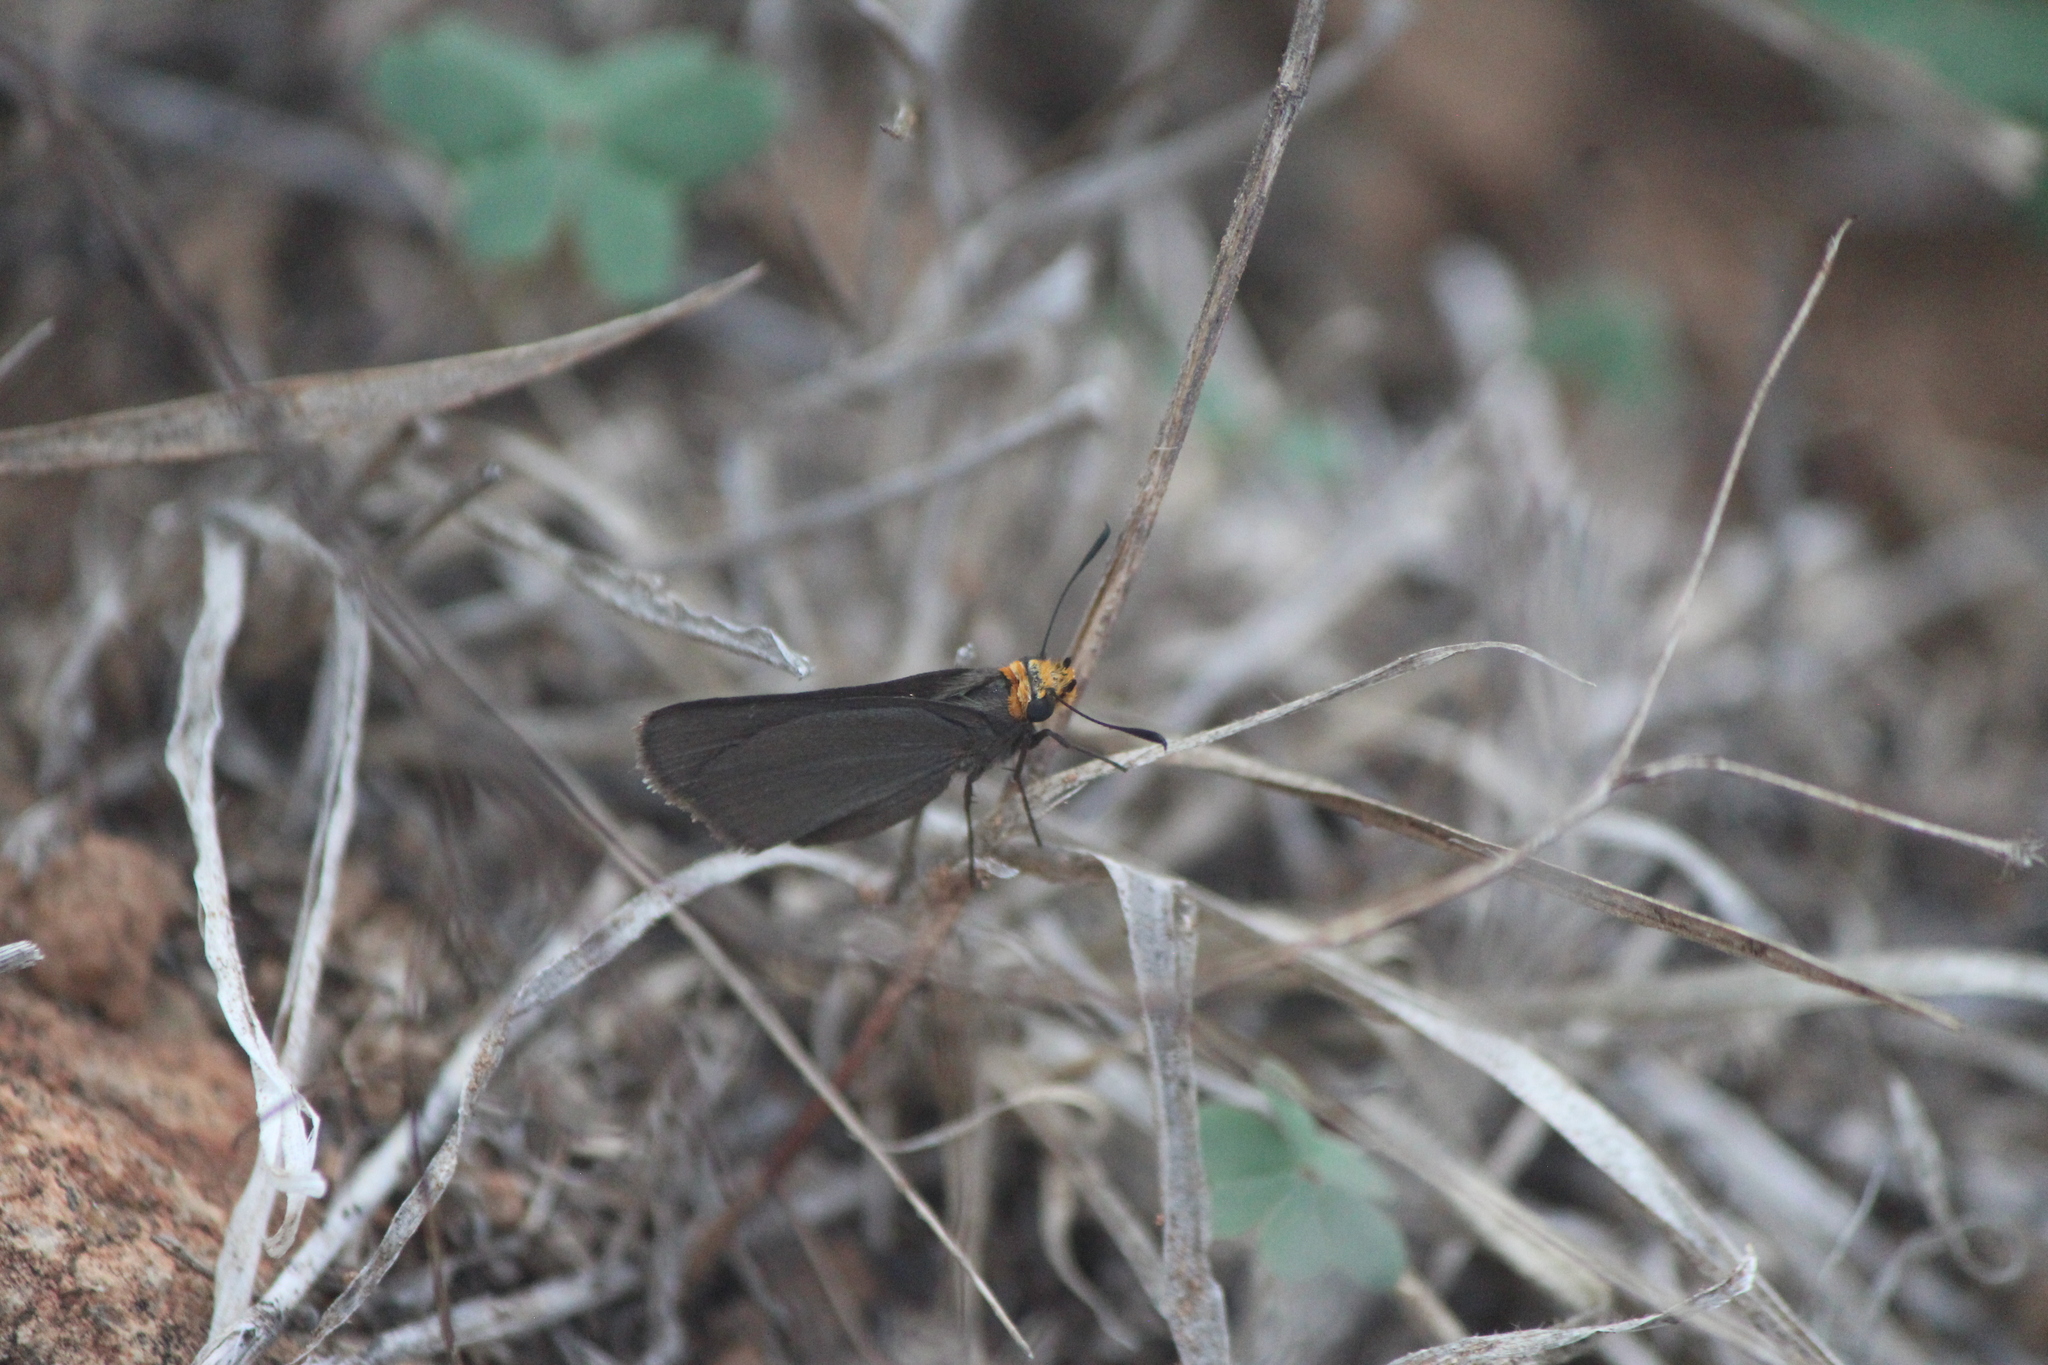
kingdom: Animalia
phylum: Arthropoda
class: Insecta
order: Lepidoptera
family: Hesperiidae
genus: Mastor
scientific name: Mastor phylace
